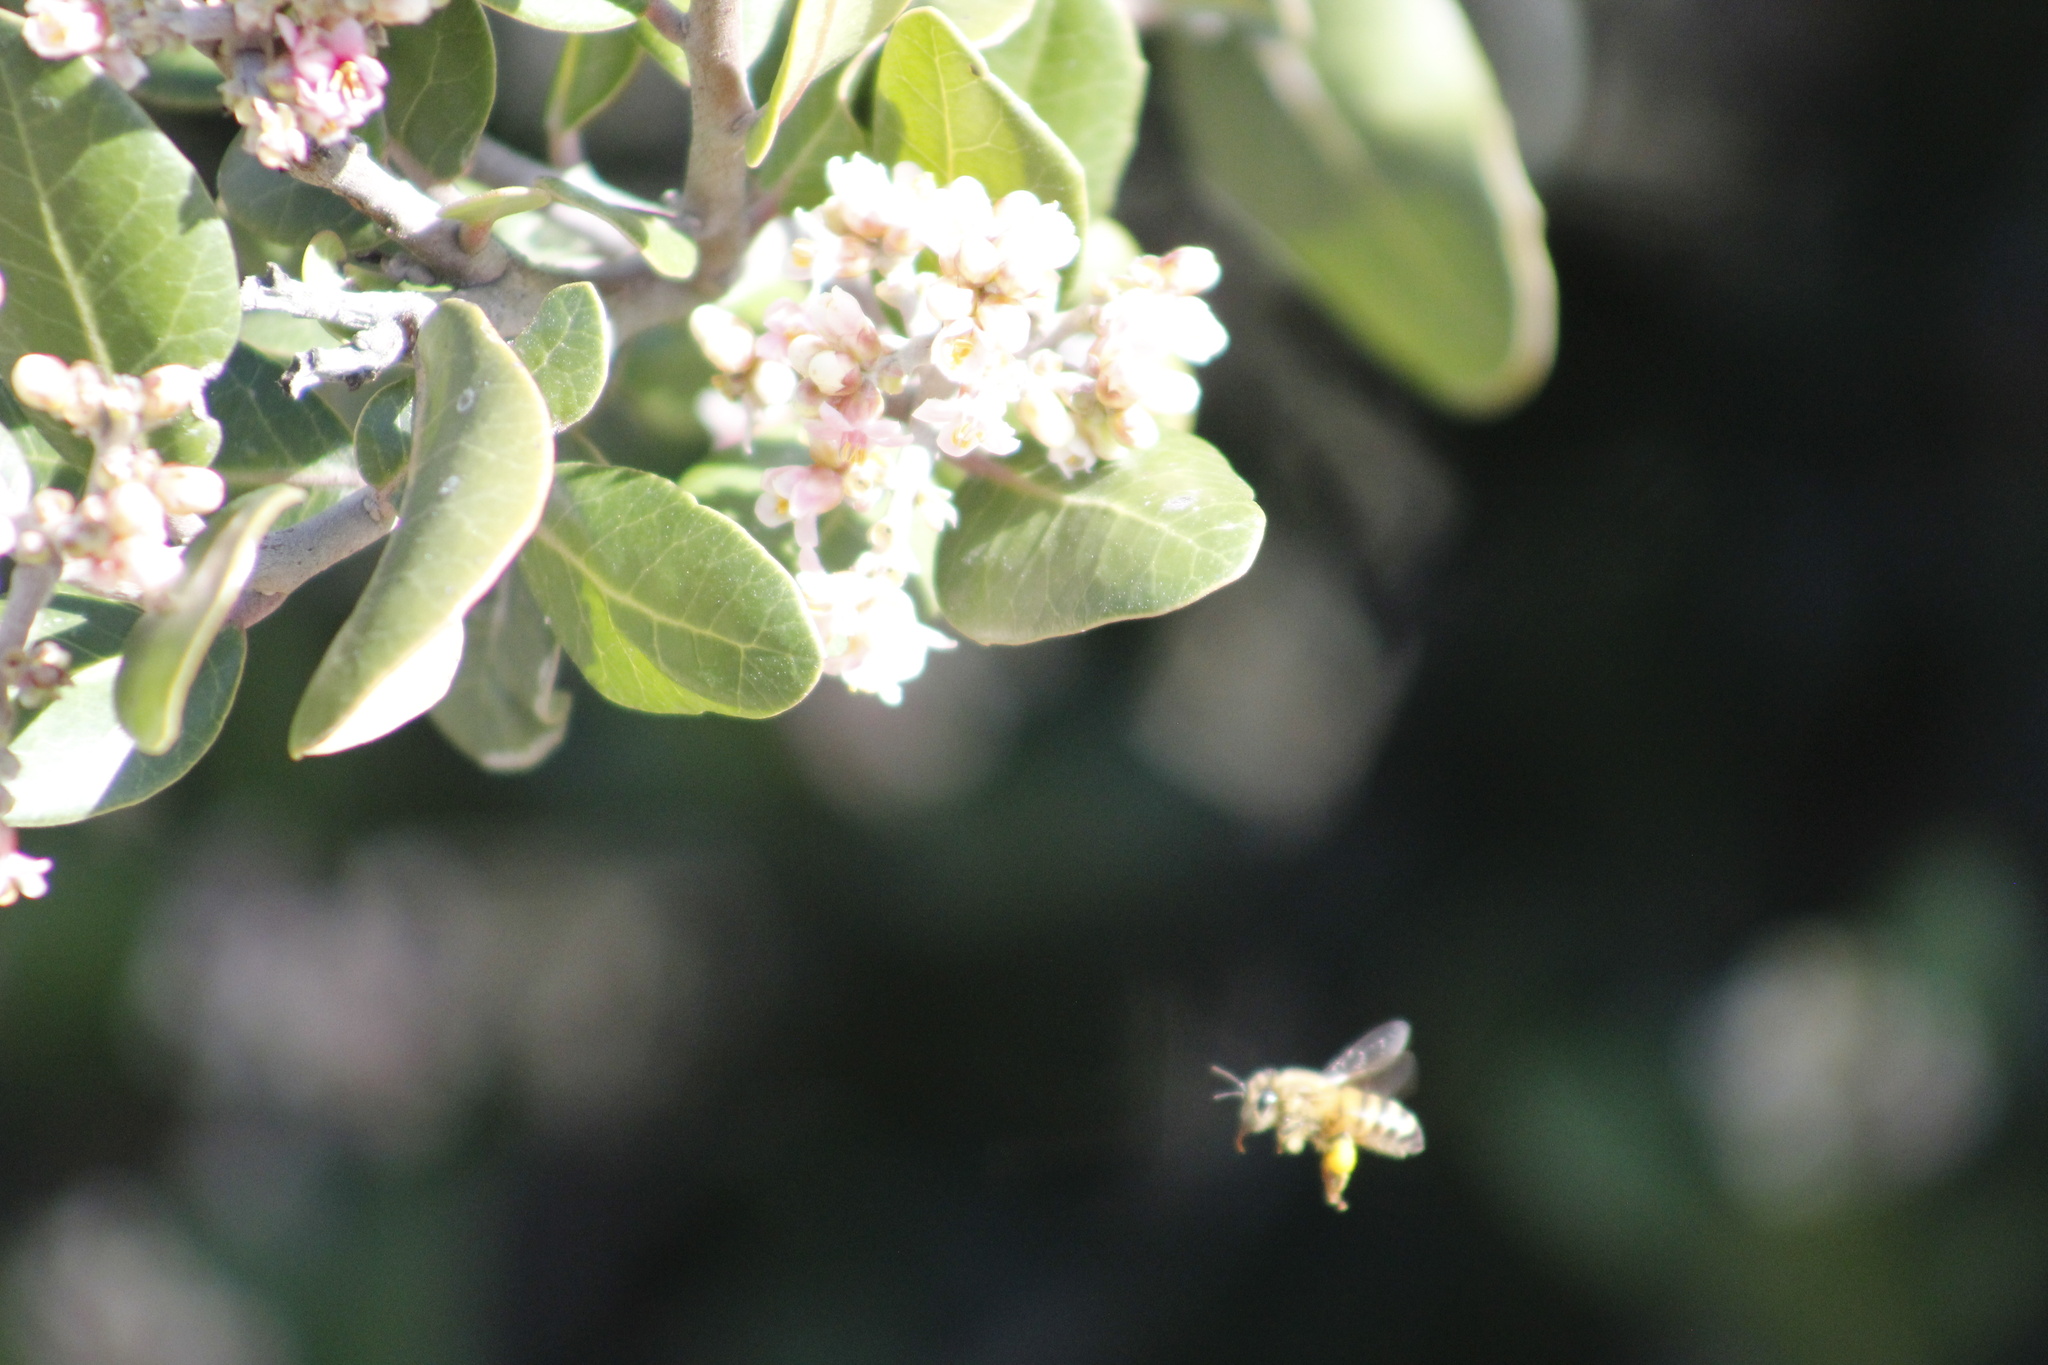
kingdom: Animalia
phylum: Arthropoda
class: Insecta
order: Hymenoptera
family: Apidae
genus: Apis
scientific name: Apis mellifera
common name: Honey bee
